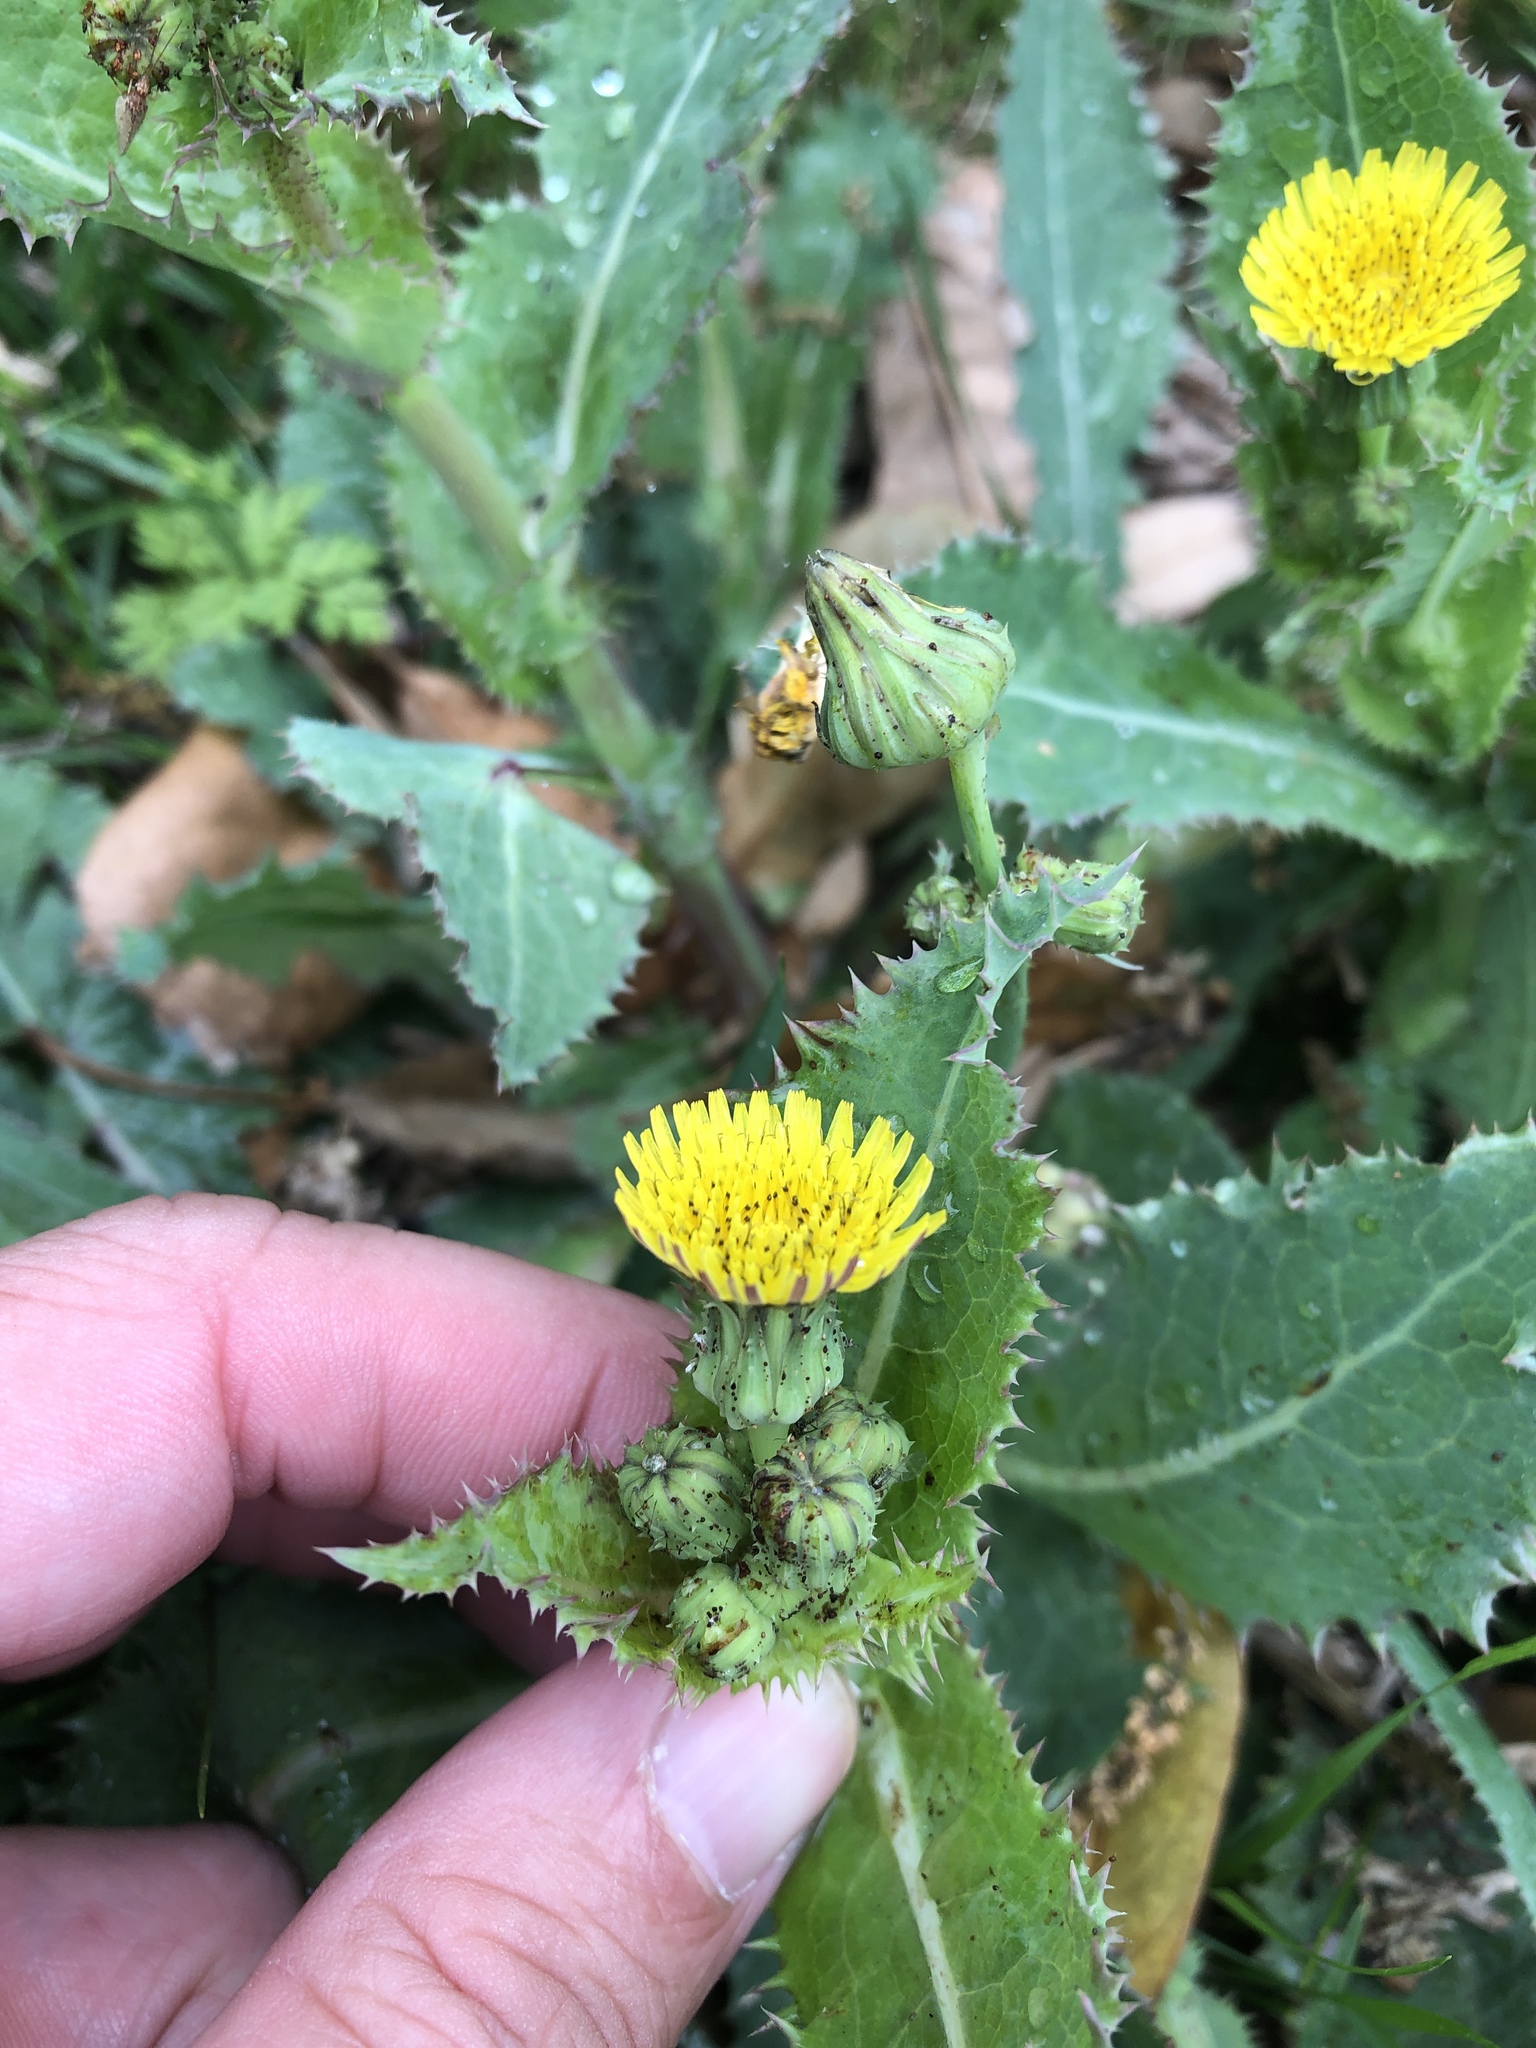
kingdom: Plantae
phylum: Tracheophyta
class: Magnoliopsida
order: Asterales
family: Asteraceae
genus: Sonchus
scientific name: Sonchus oleraceus
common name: Common sowthistle
